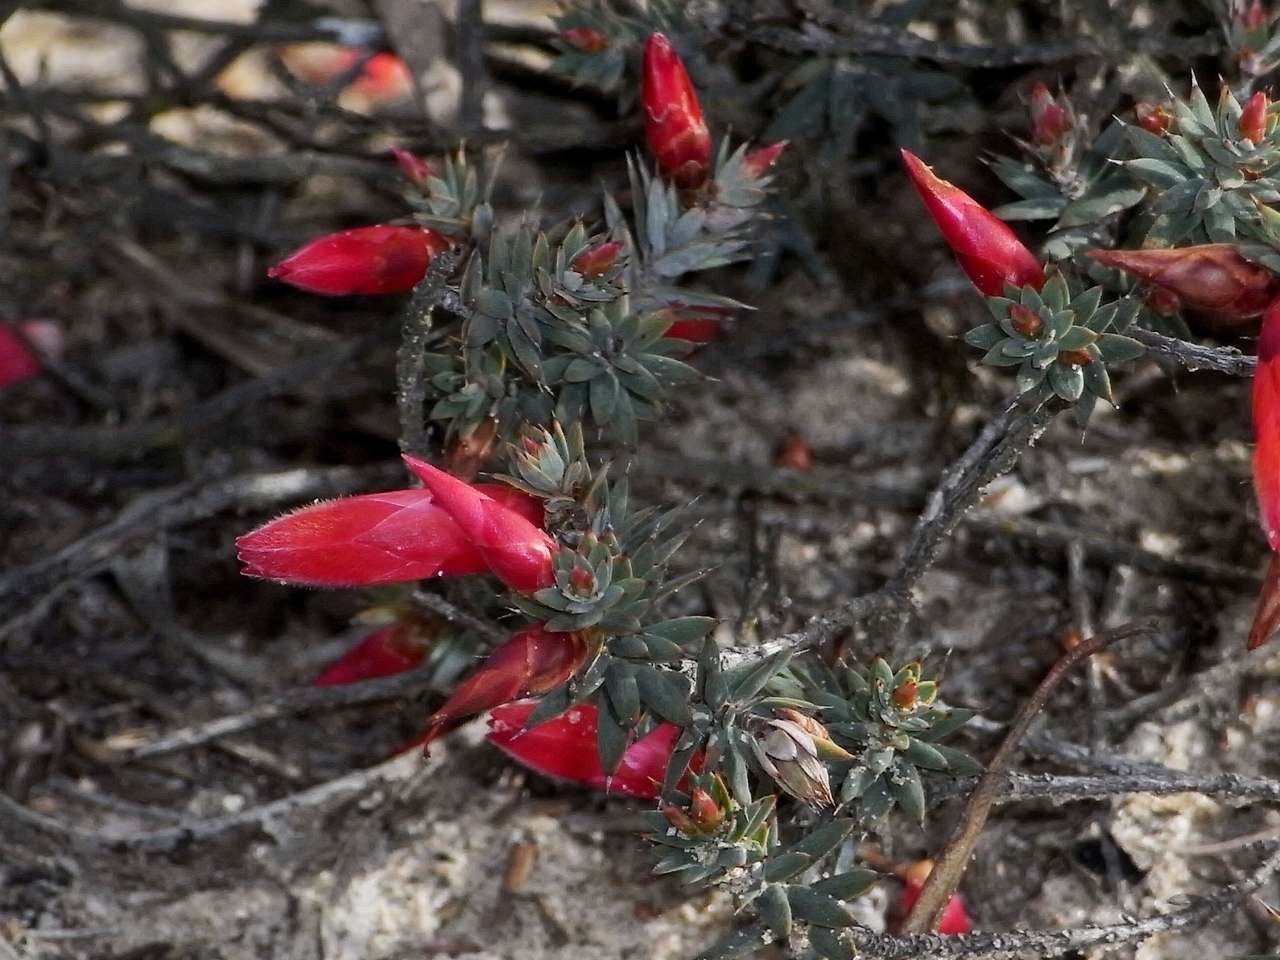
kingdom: Plantae
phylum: Tracheophyta
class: Magnoliopsida
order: Ericales
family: Ericaceae
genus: Stenanthera
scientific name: Stenanthera conostephioides
